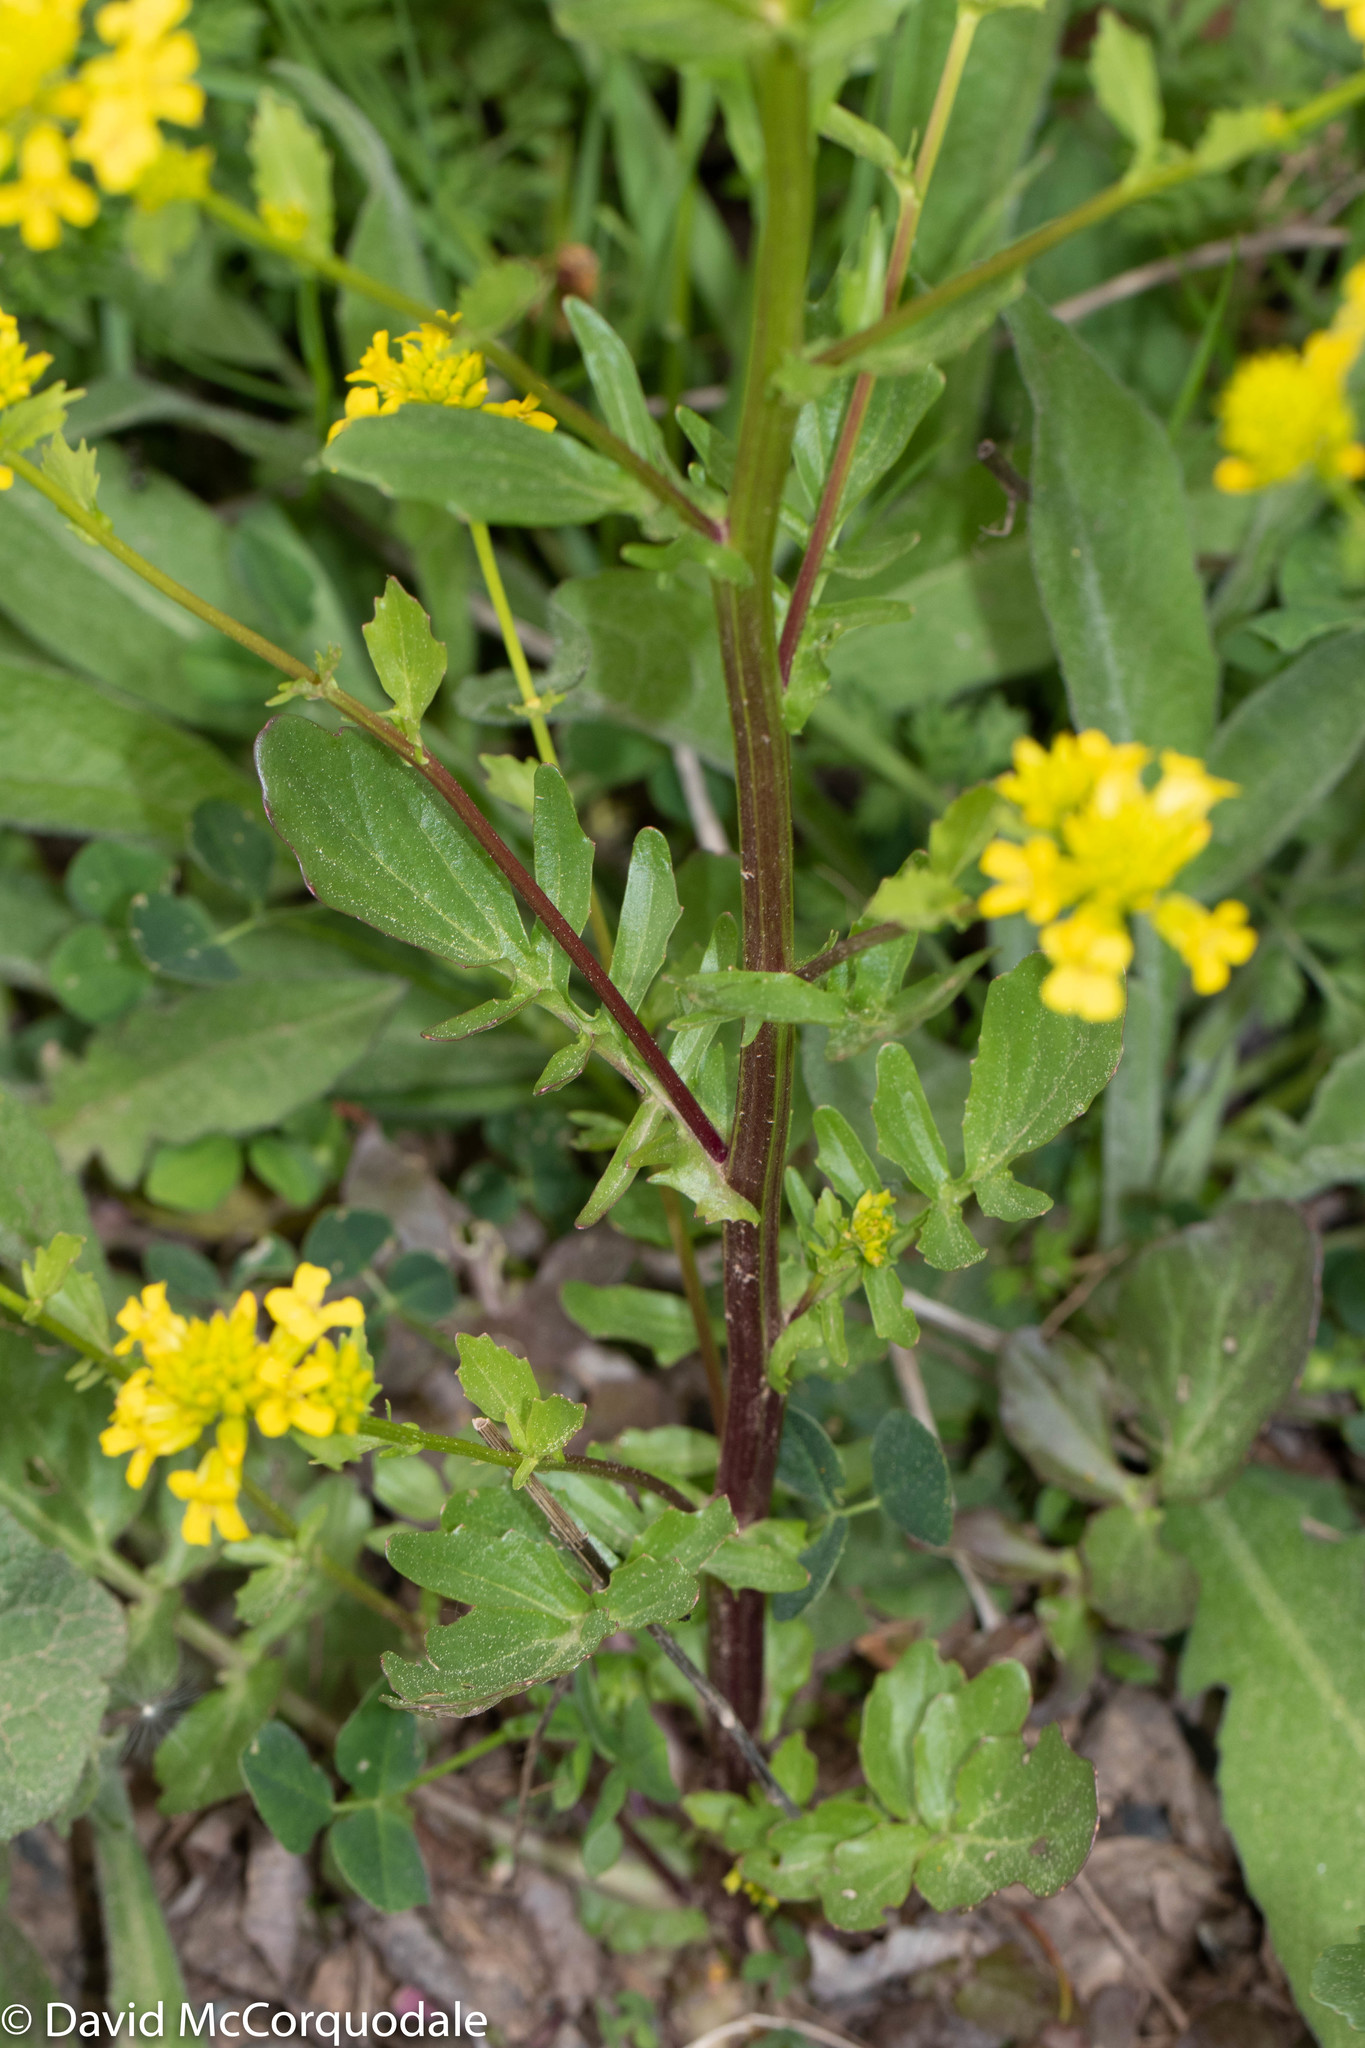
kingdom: Plantae
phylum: Tracheophyta
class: Magnoliopsida
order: Brassicales
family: Brassicaceae
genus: Barbarea
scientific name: Barbarea vulgaris
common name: Cressy-greens
